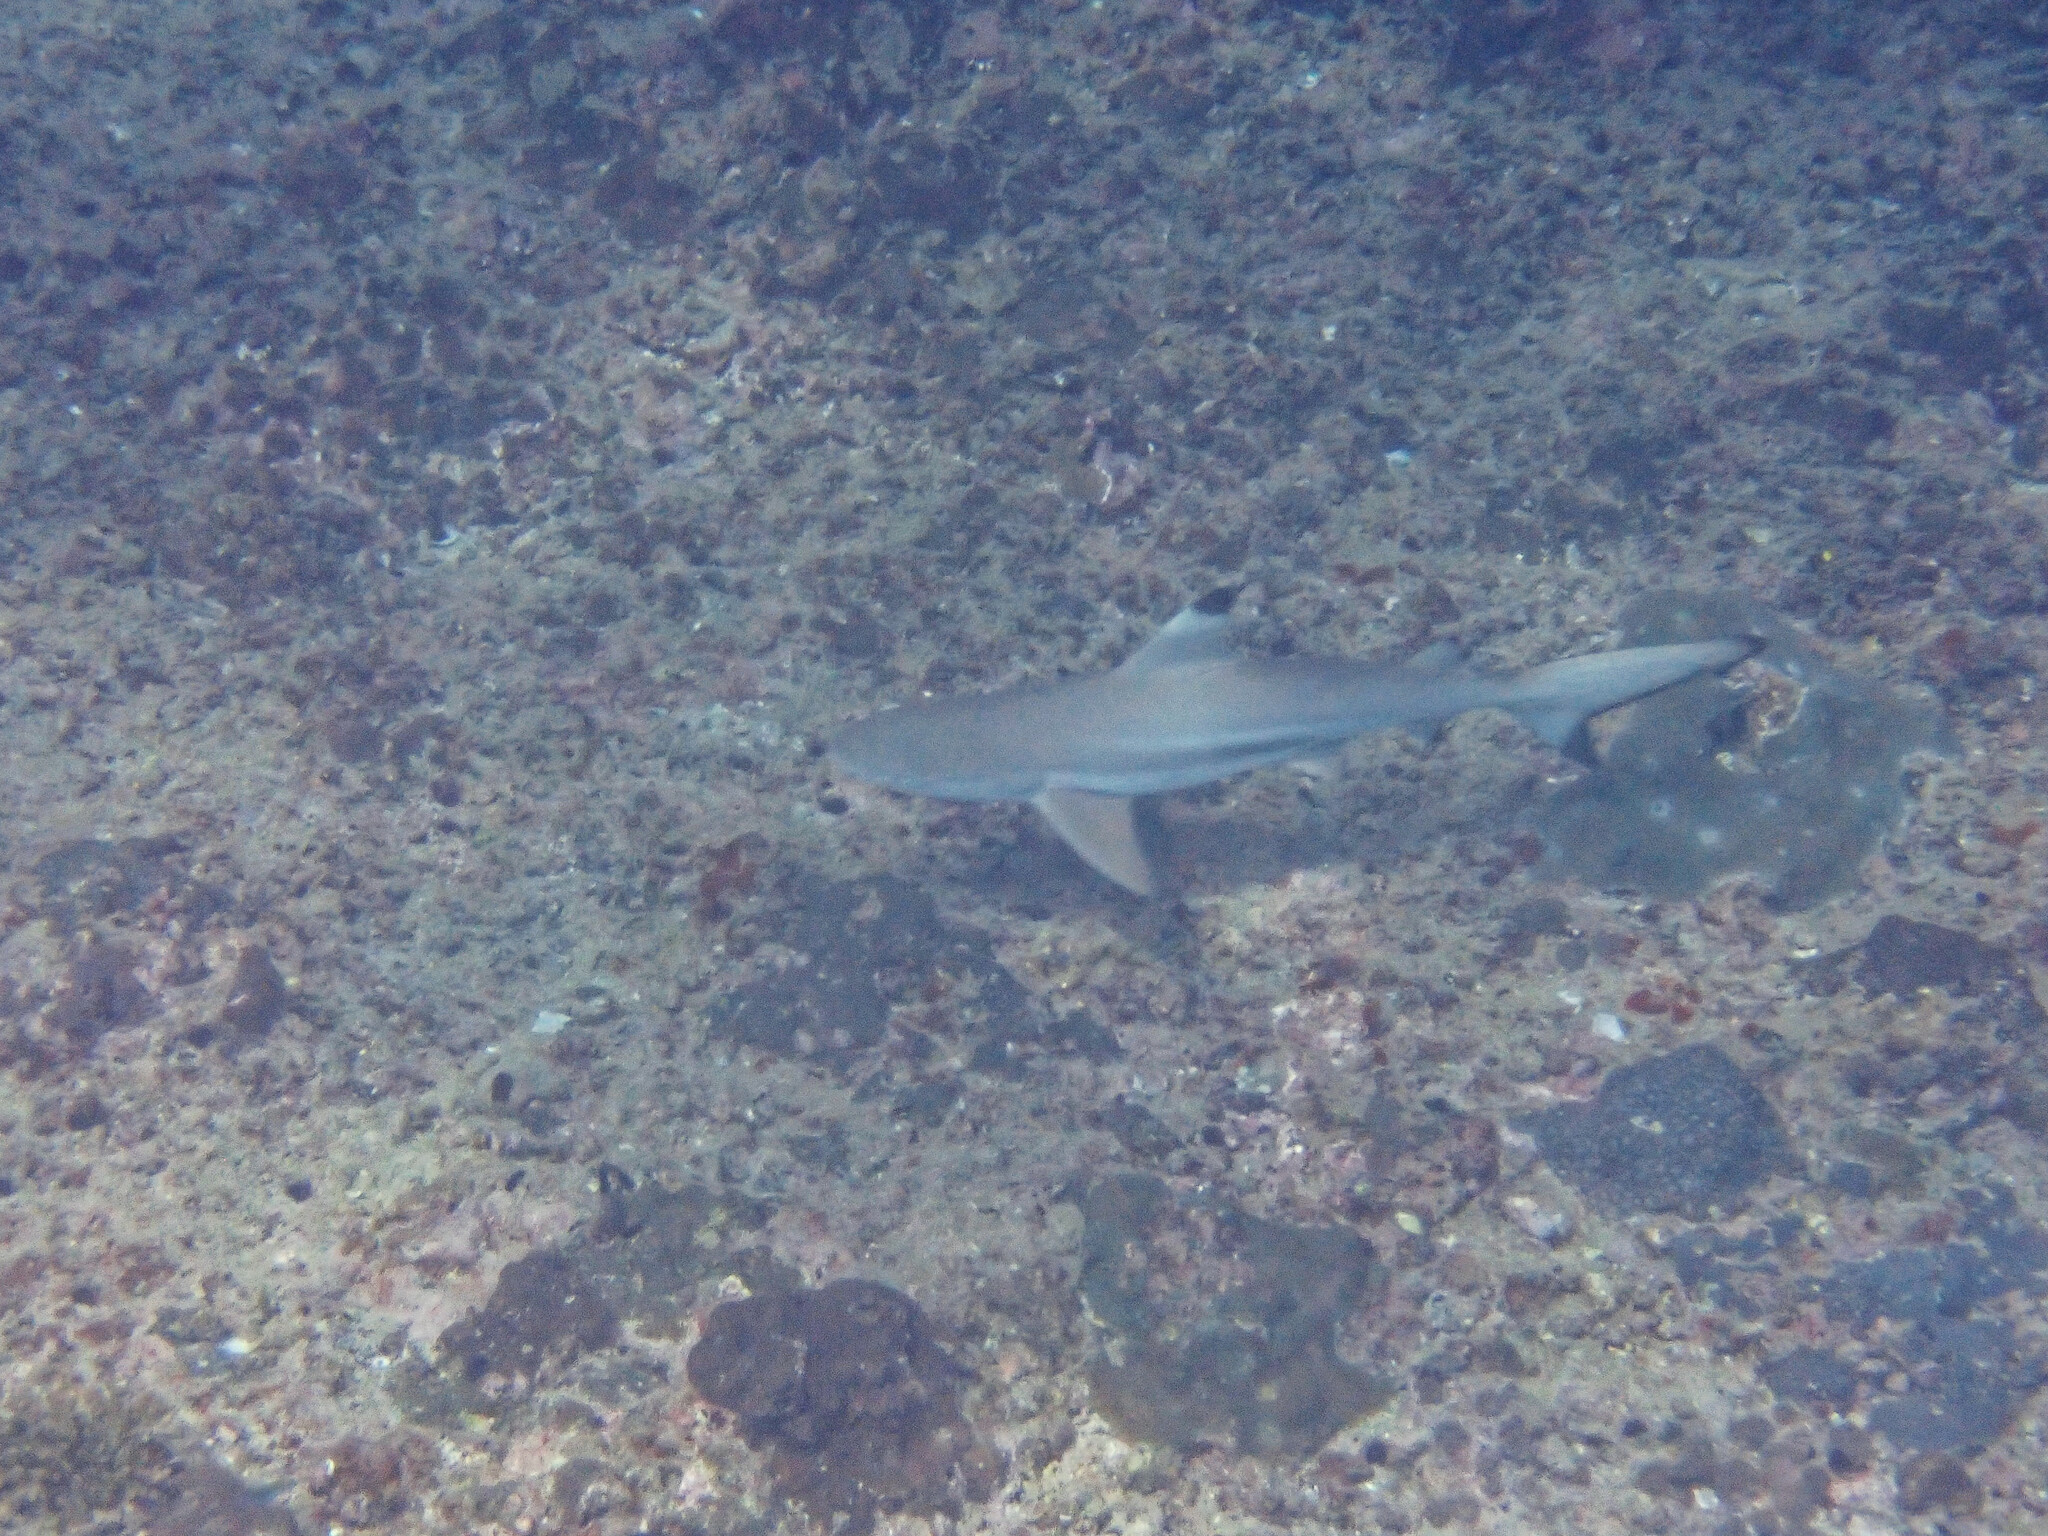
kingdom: Animalia
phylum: Chordata
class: Elasmobranchii
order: Carcharhiniformes
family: Carcharhinidae
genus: Carcharhinus
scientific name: Carcharhinus melanopterus
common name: Blacktip reef shark
